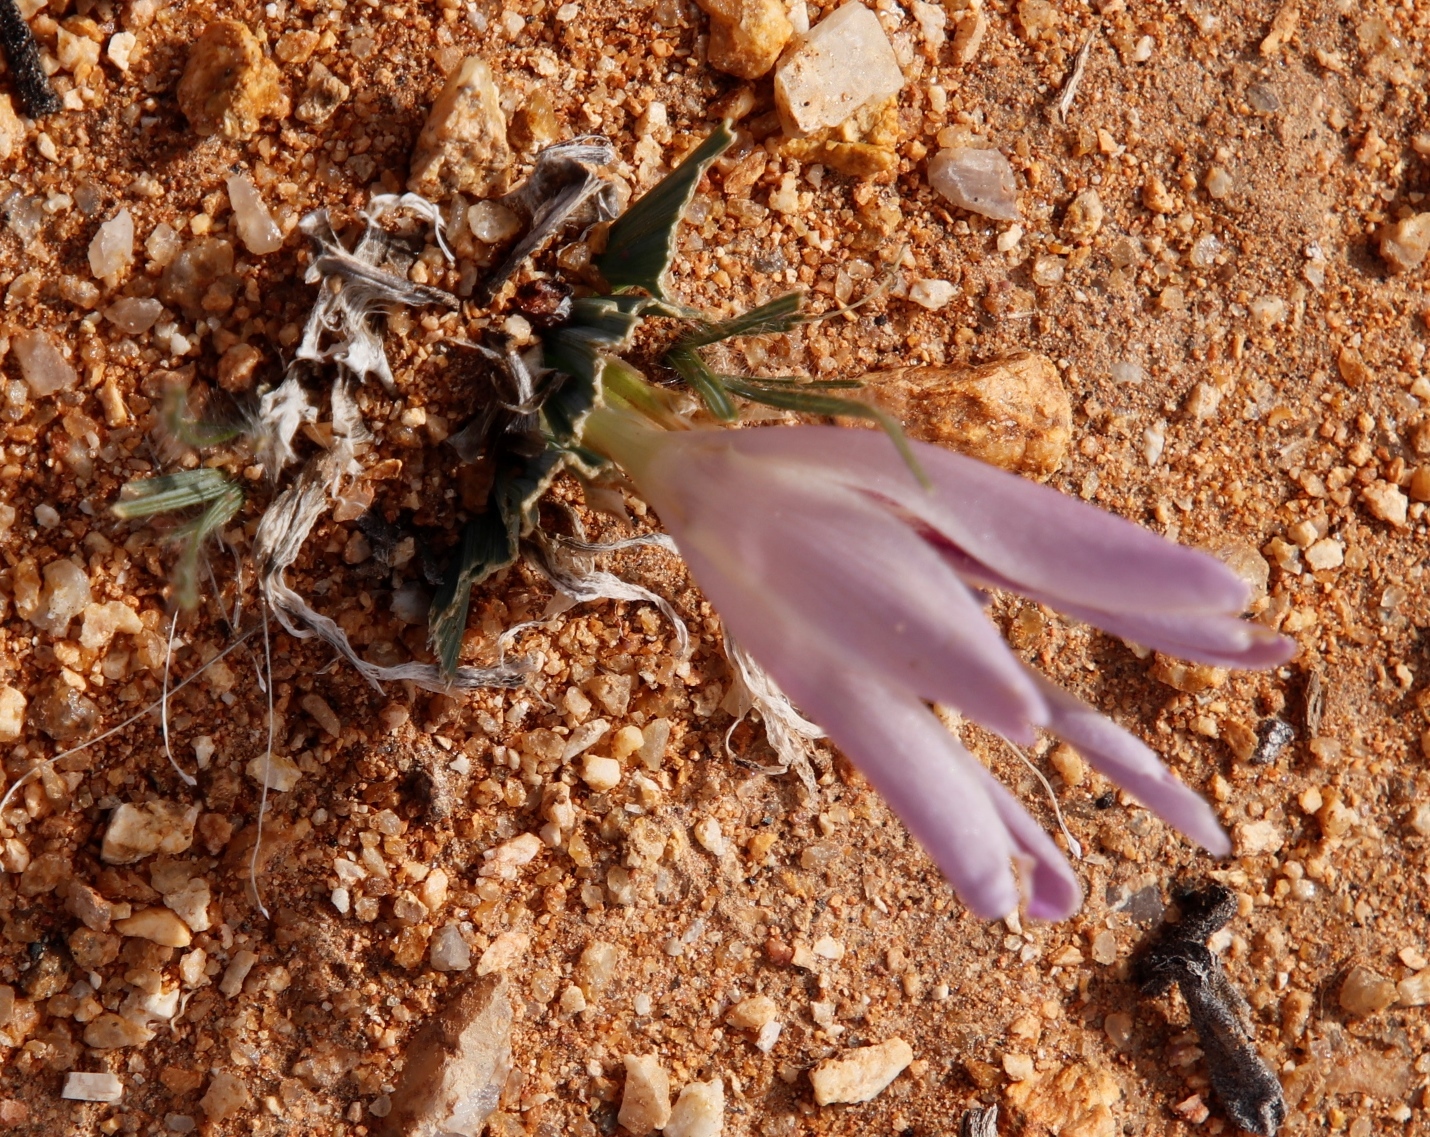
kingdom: Plantae
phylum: Tracheophyta
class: Liliopsida
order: Asparagales
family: Iridaceae
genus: Babiana
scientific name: Babiana flabellifolia
